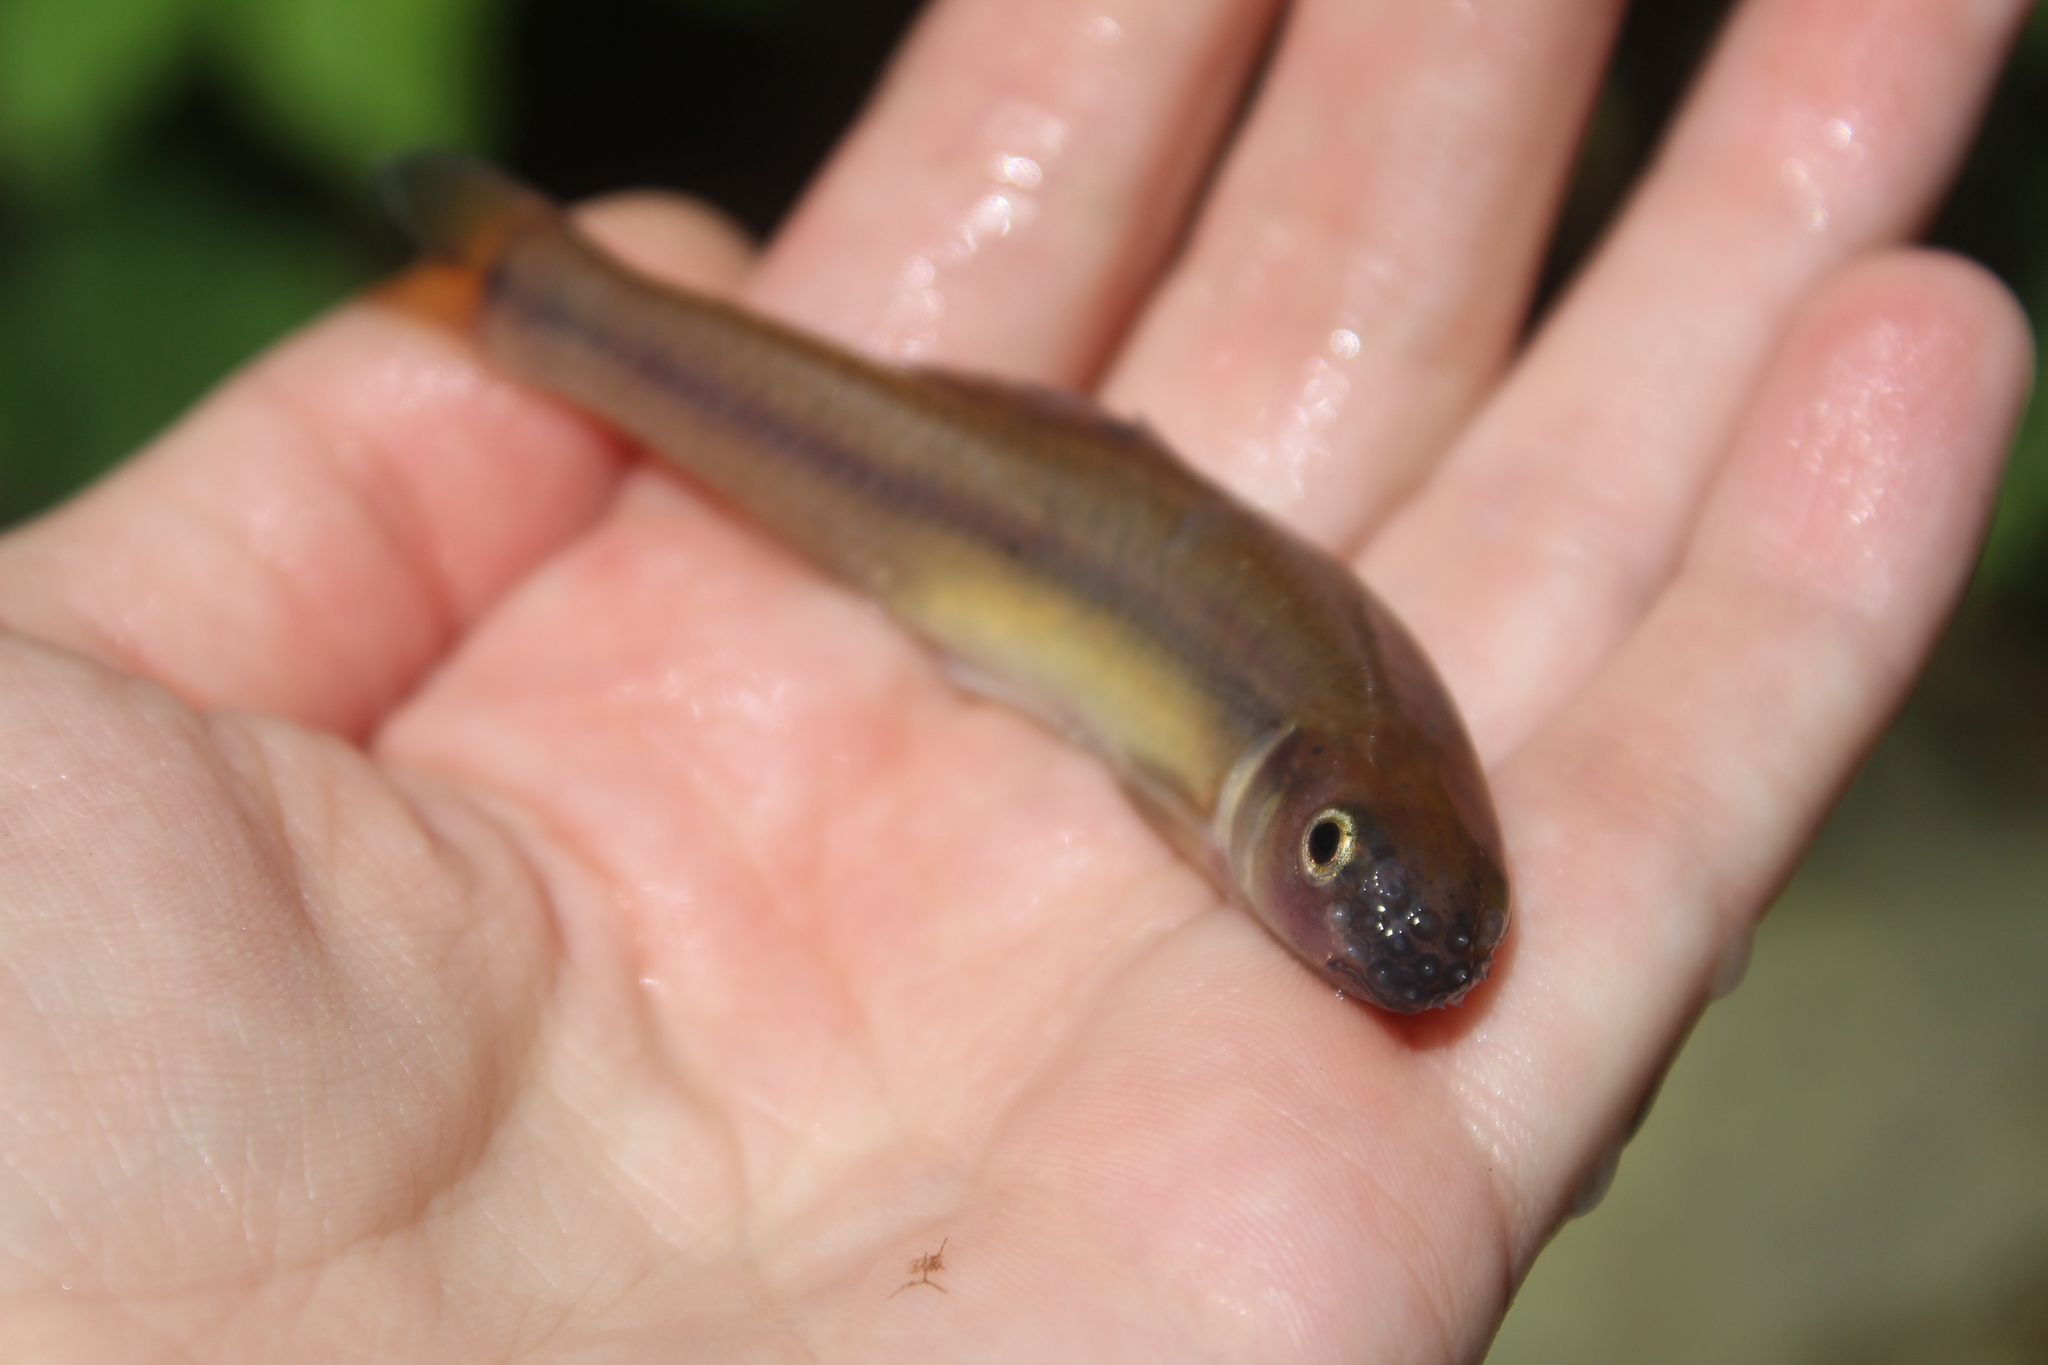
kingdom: Animalia
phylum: Chordata
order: Cypriniformes
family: Cyprinidae
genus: Pimephales
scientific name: Pimephales notatus
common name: Bluntnose minnow
